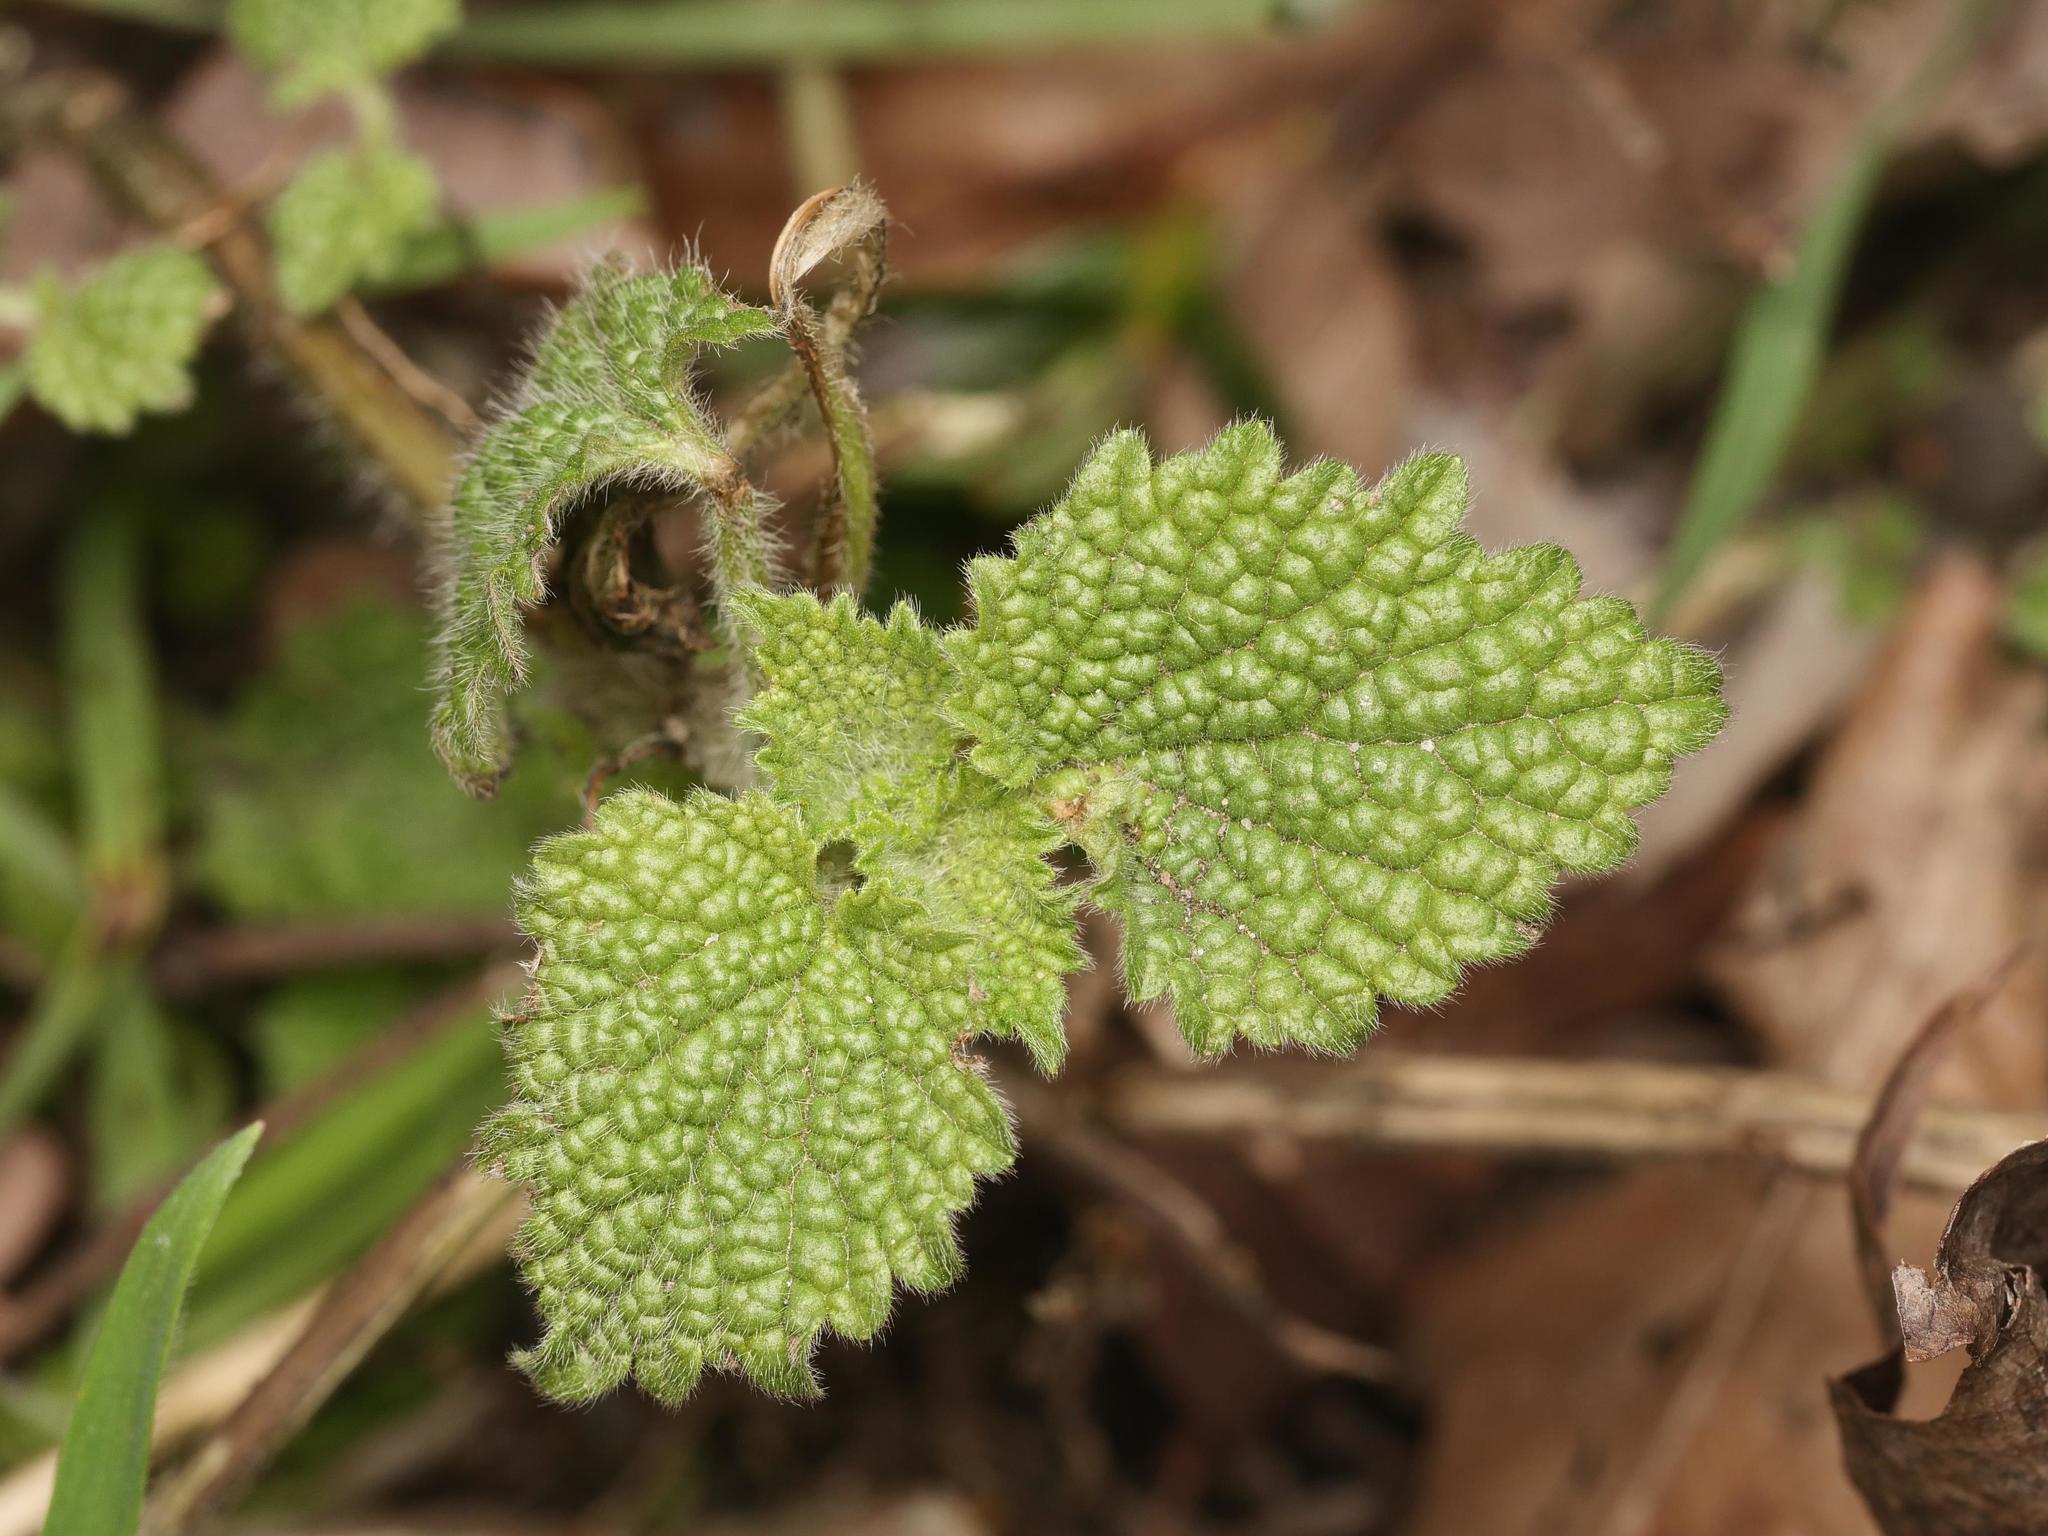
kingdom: Plantae
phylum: Tracheophyta
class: Magnoliopsida
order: Lamiales
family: Lamiaceae
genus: Ballota
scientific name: Ballota nigra
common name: Black horehound
